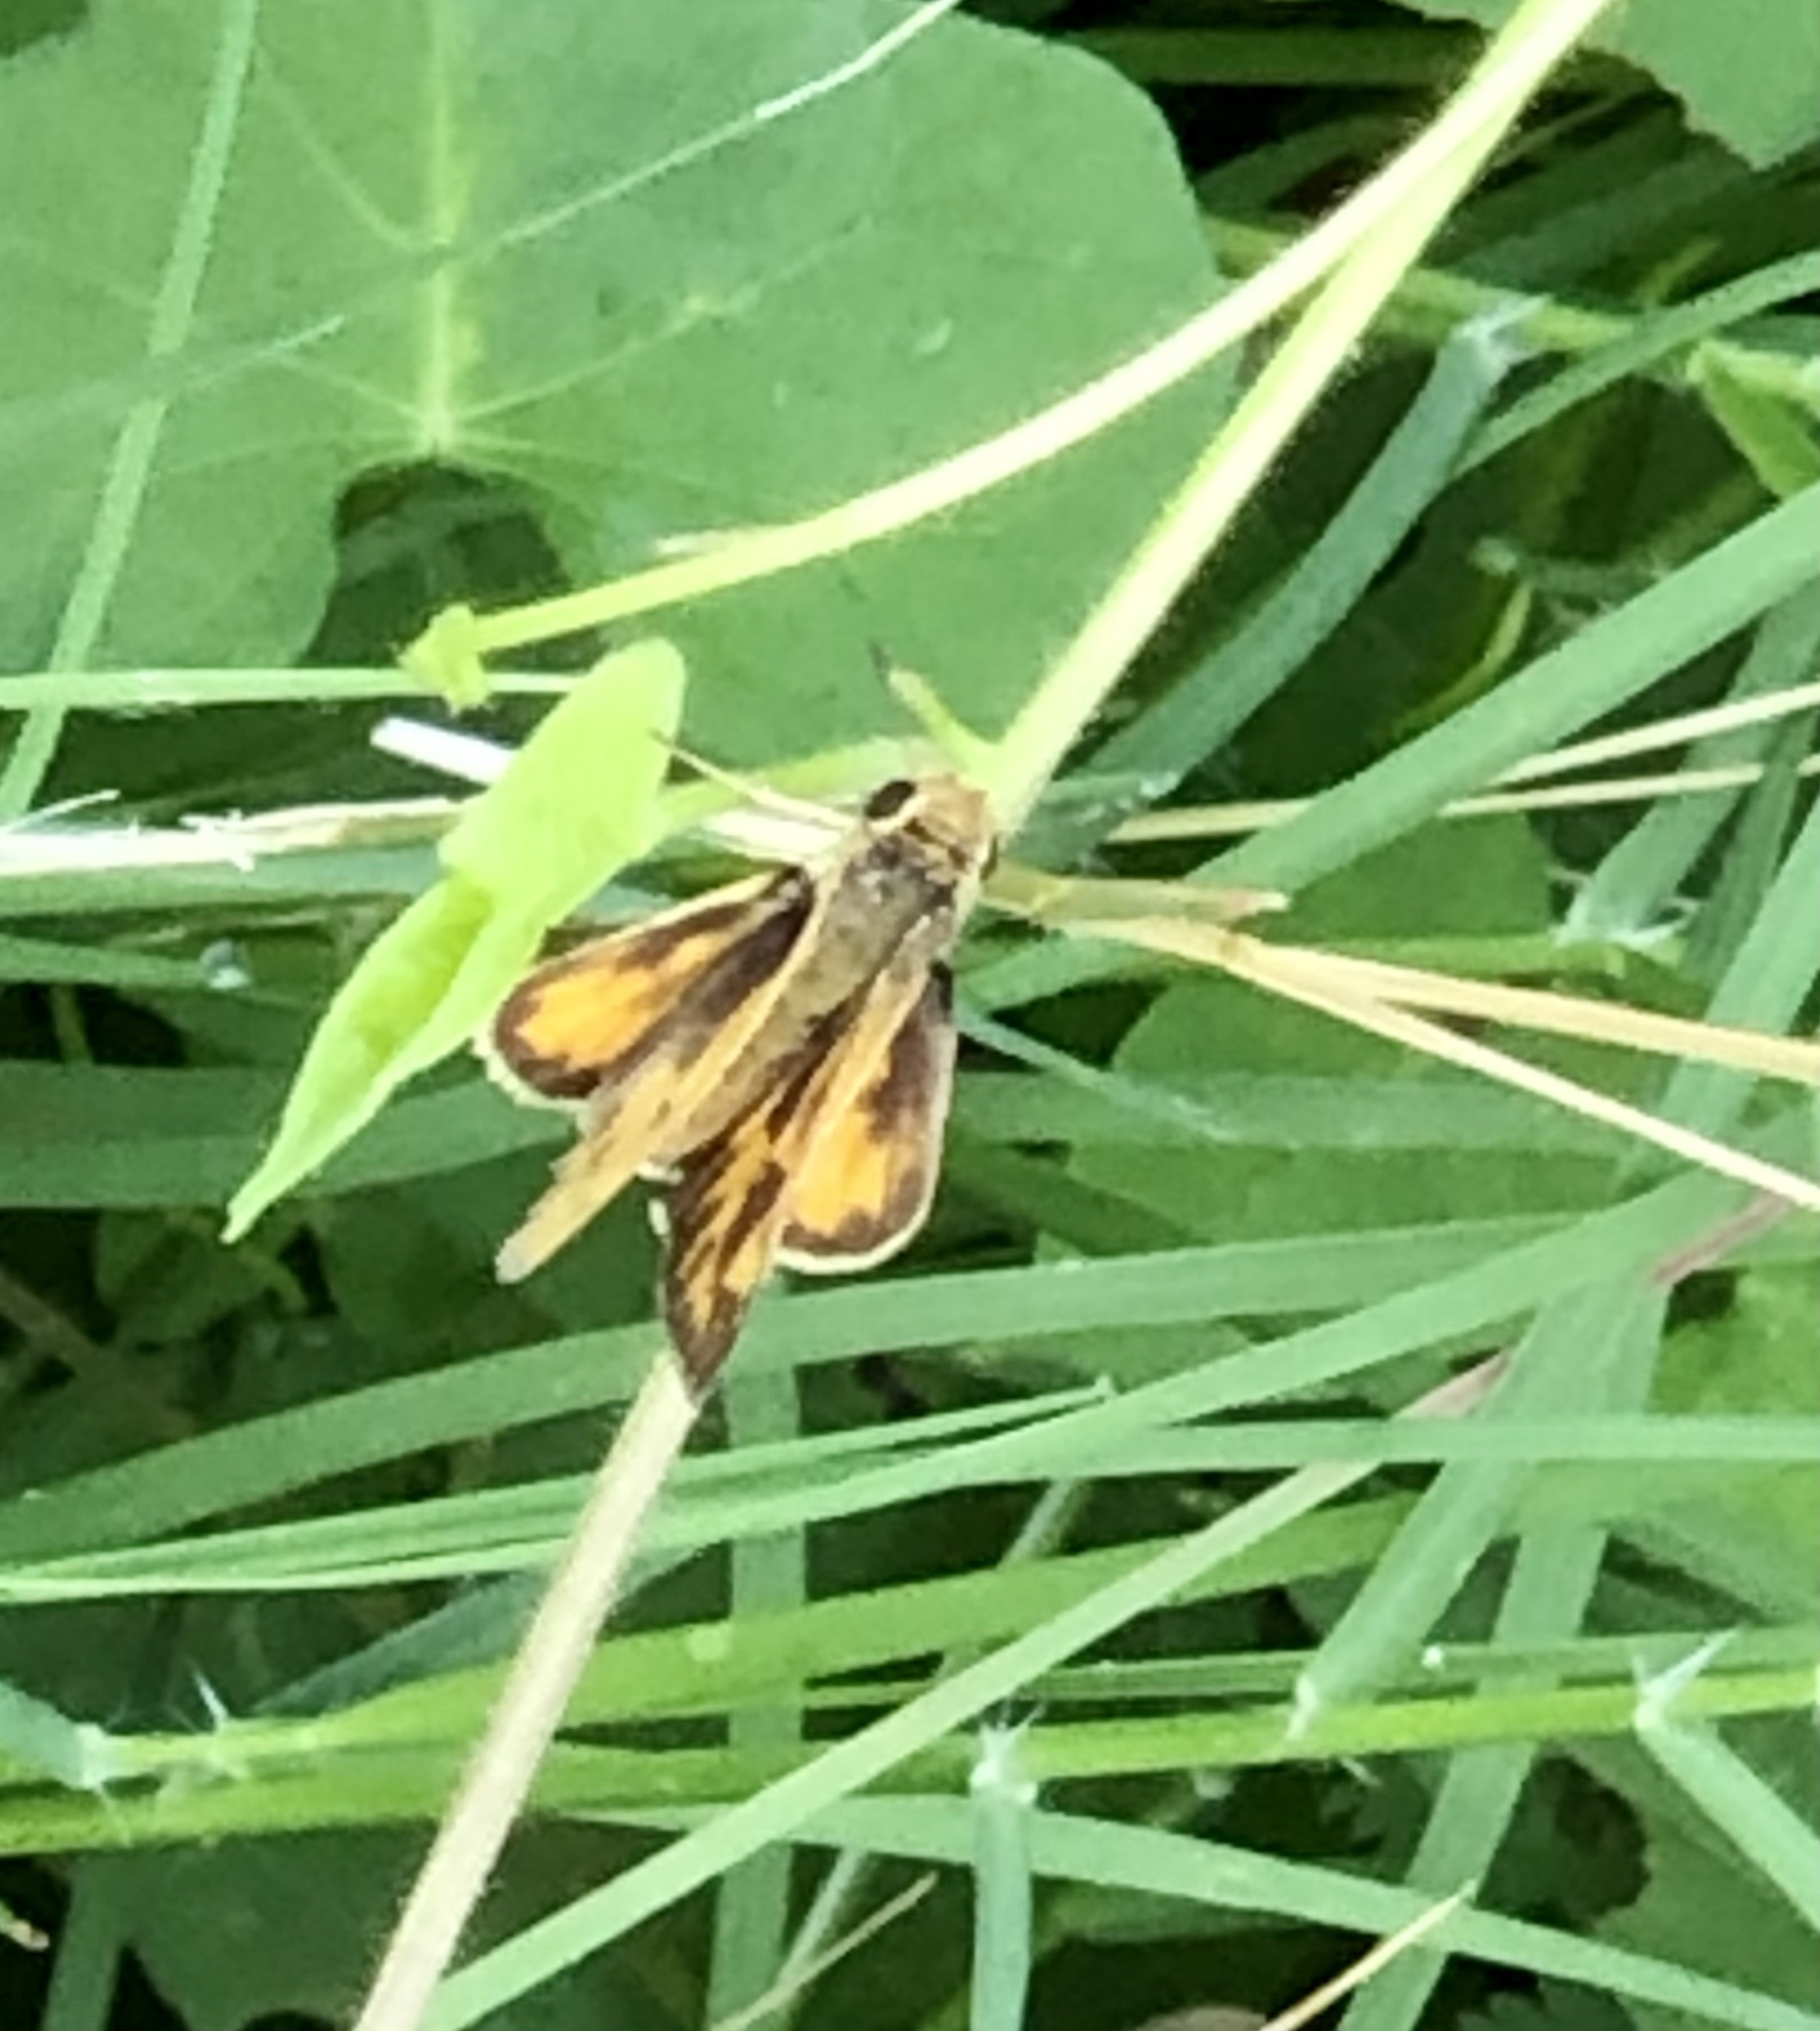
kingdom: Animalia
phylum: Arthropoda
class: Insecta
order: Lepidoptera
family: Hesperiidae
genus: Hylephila
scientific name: Hylephila phyleus
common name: Fiery skipper
